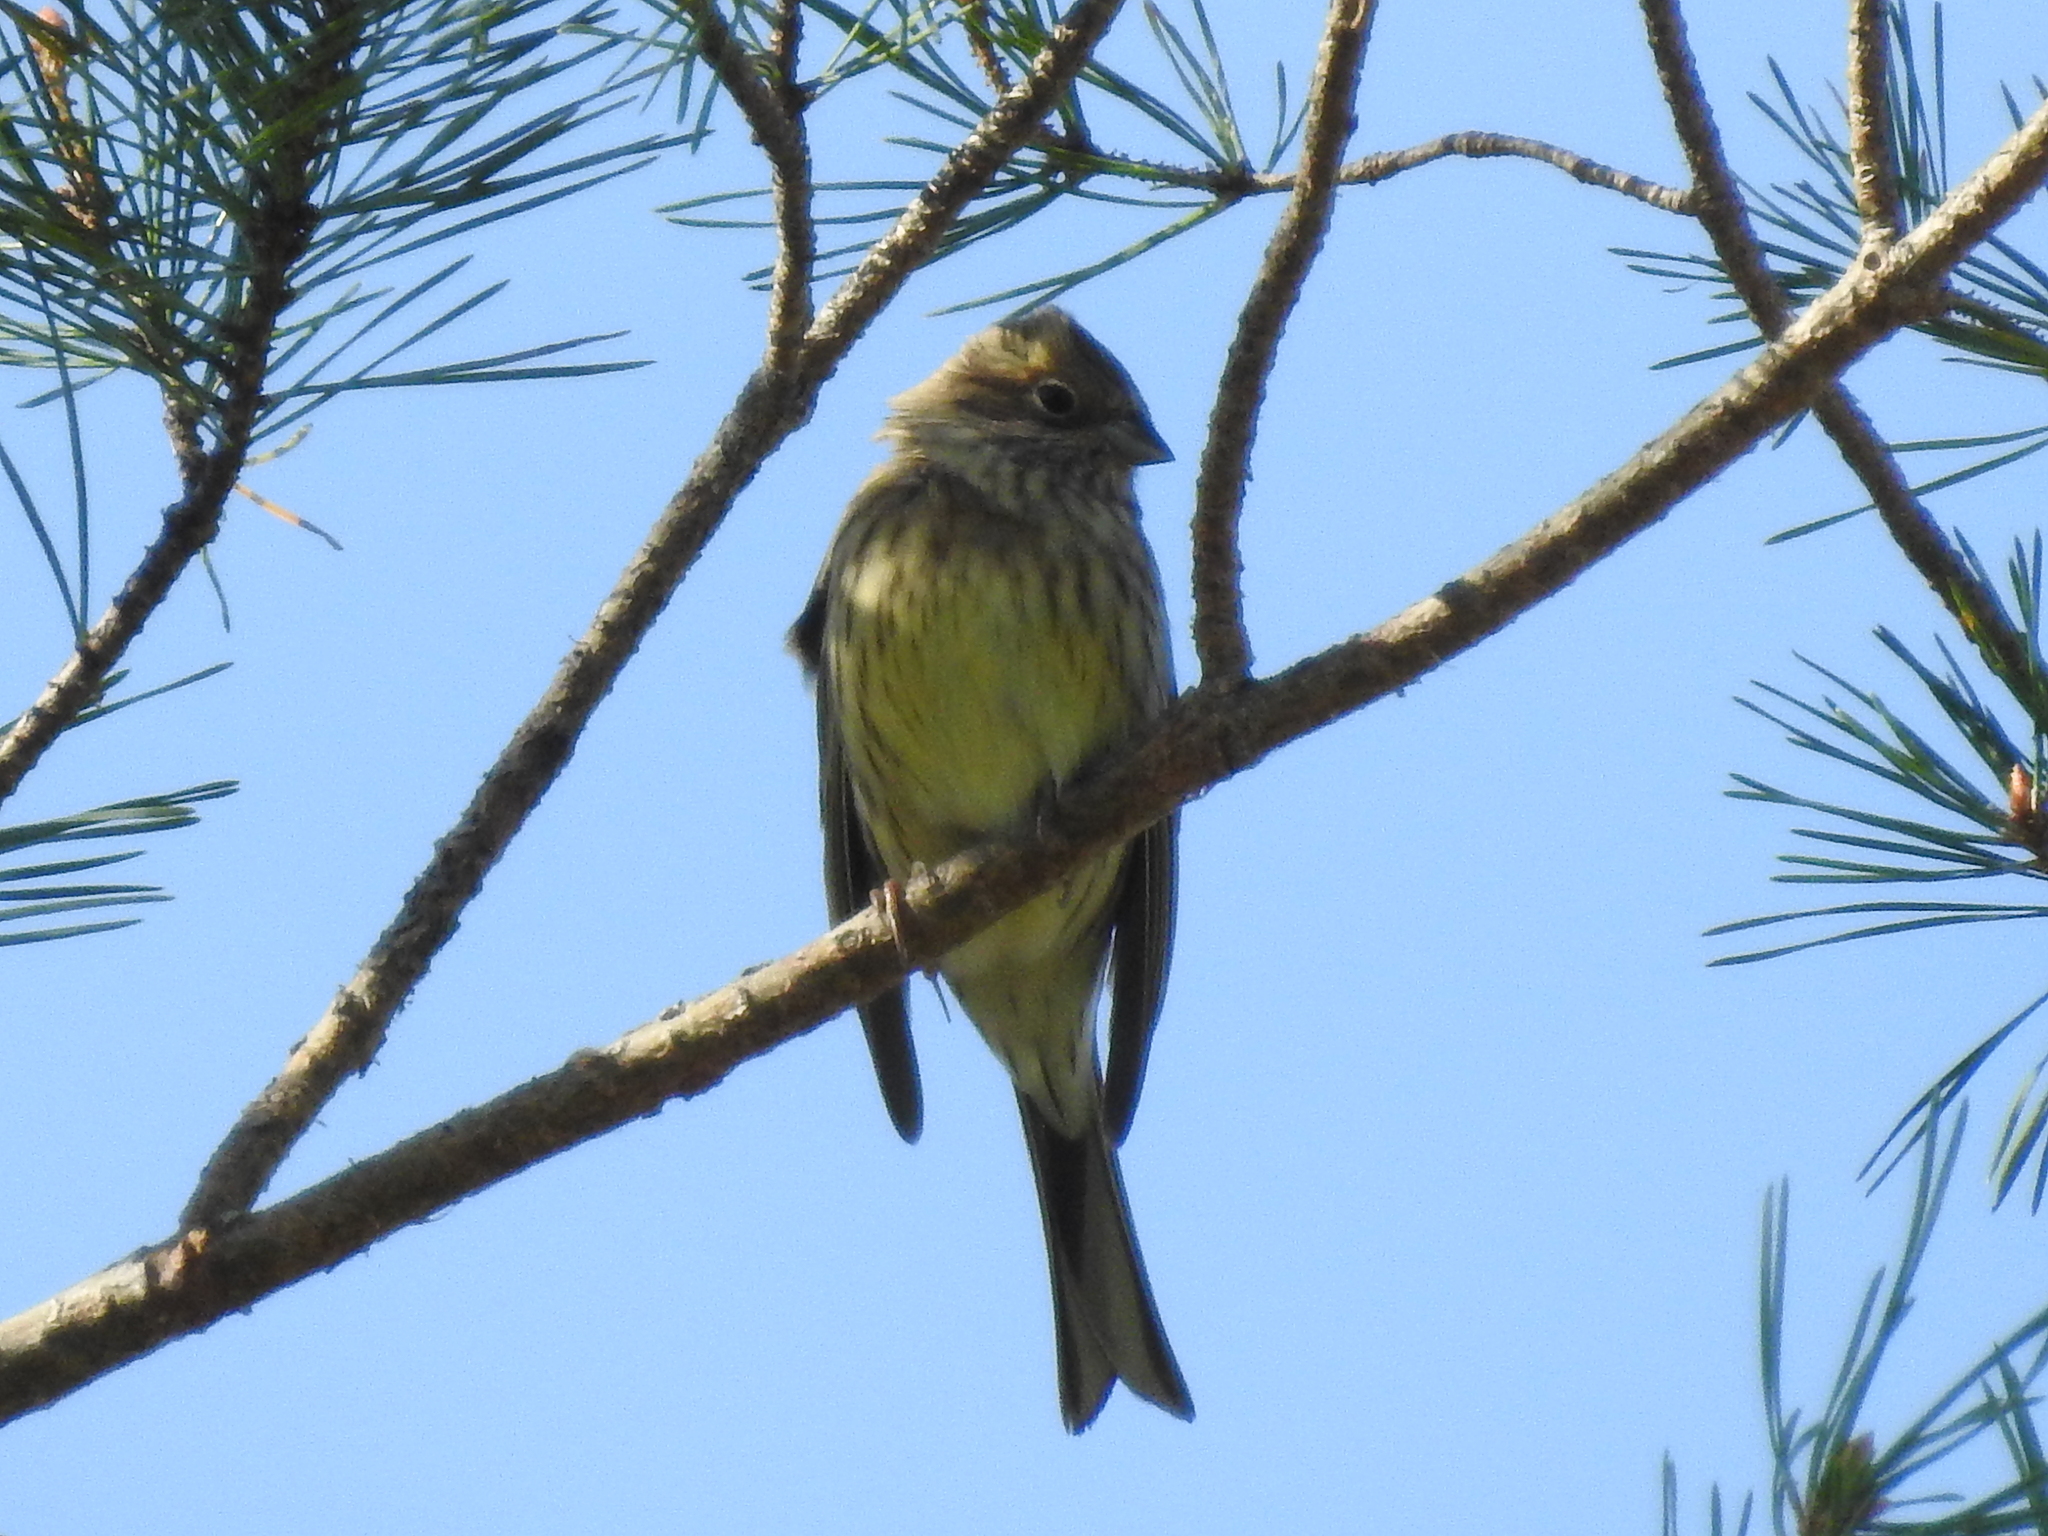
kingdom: Animalia
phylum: Chordata
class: Aves
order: Passeriformes
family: Emberizidae
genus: Emberiza
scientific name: Emberiza citrinella
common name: Yellowhammer
